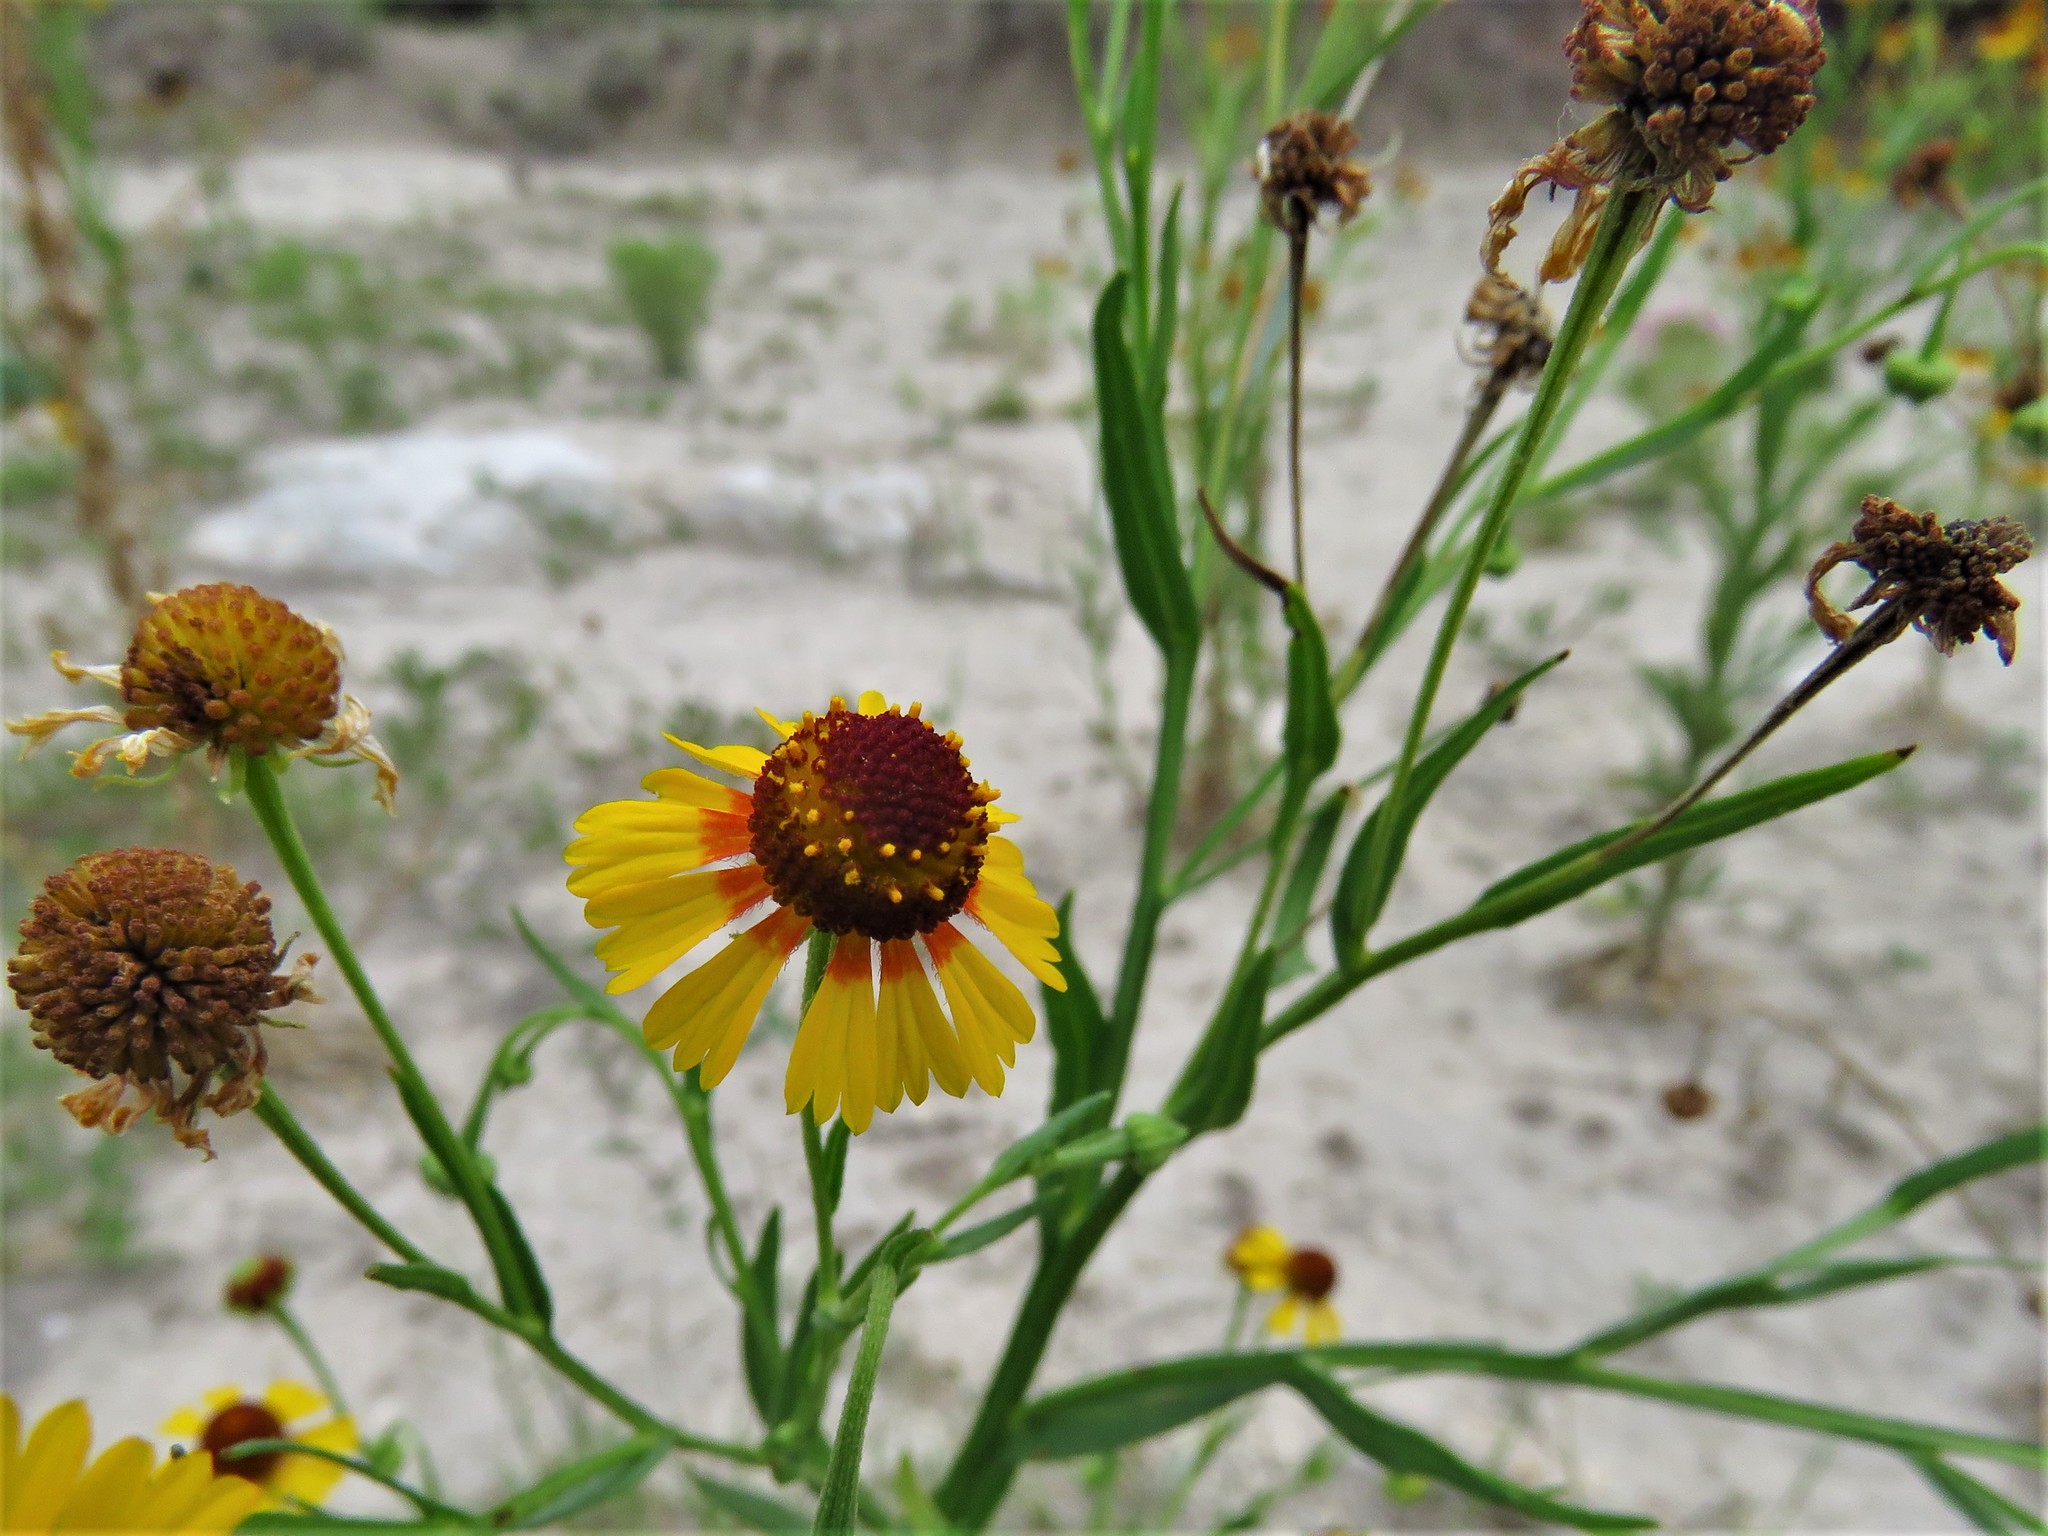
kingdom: Plantae
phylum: Tracheophyta
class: Magnoliopsida
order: Asterales
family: Asteraceae
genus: Helenium
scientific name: Helenium elegans
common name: Pretty sneezeweed
